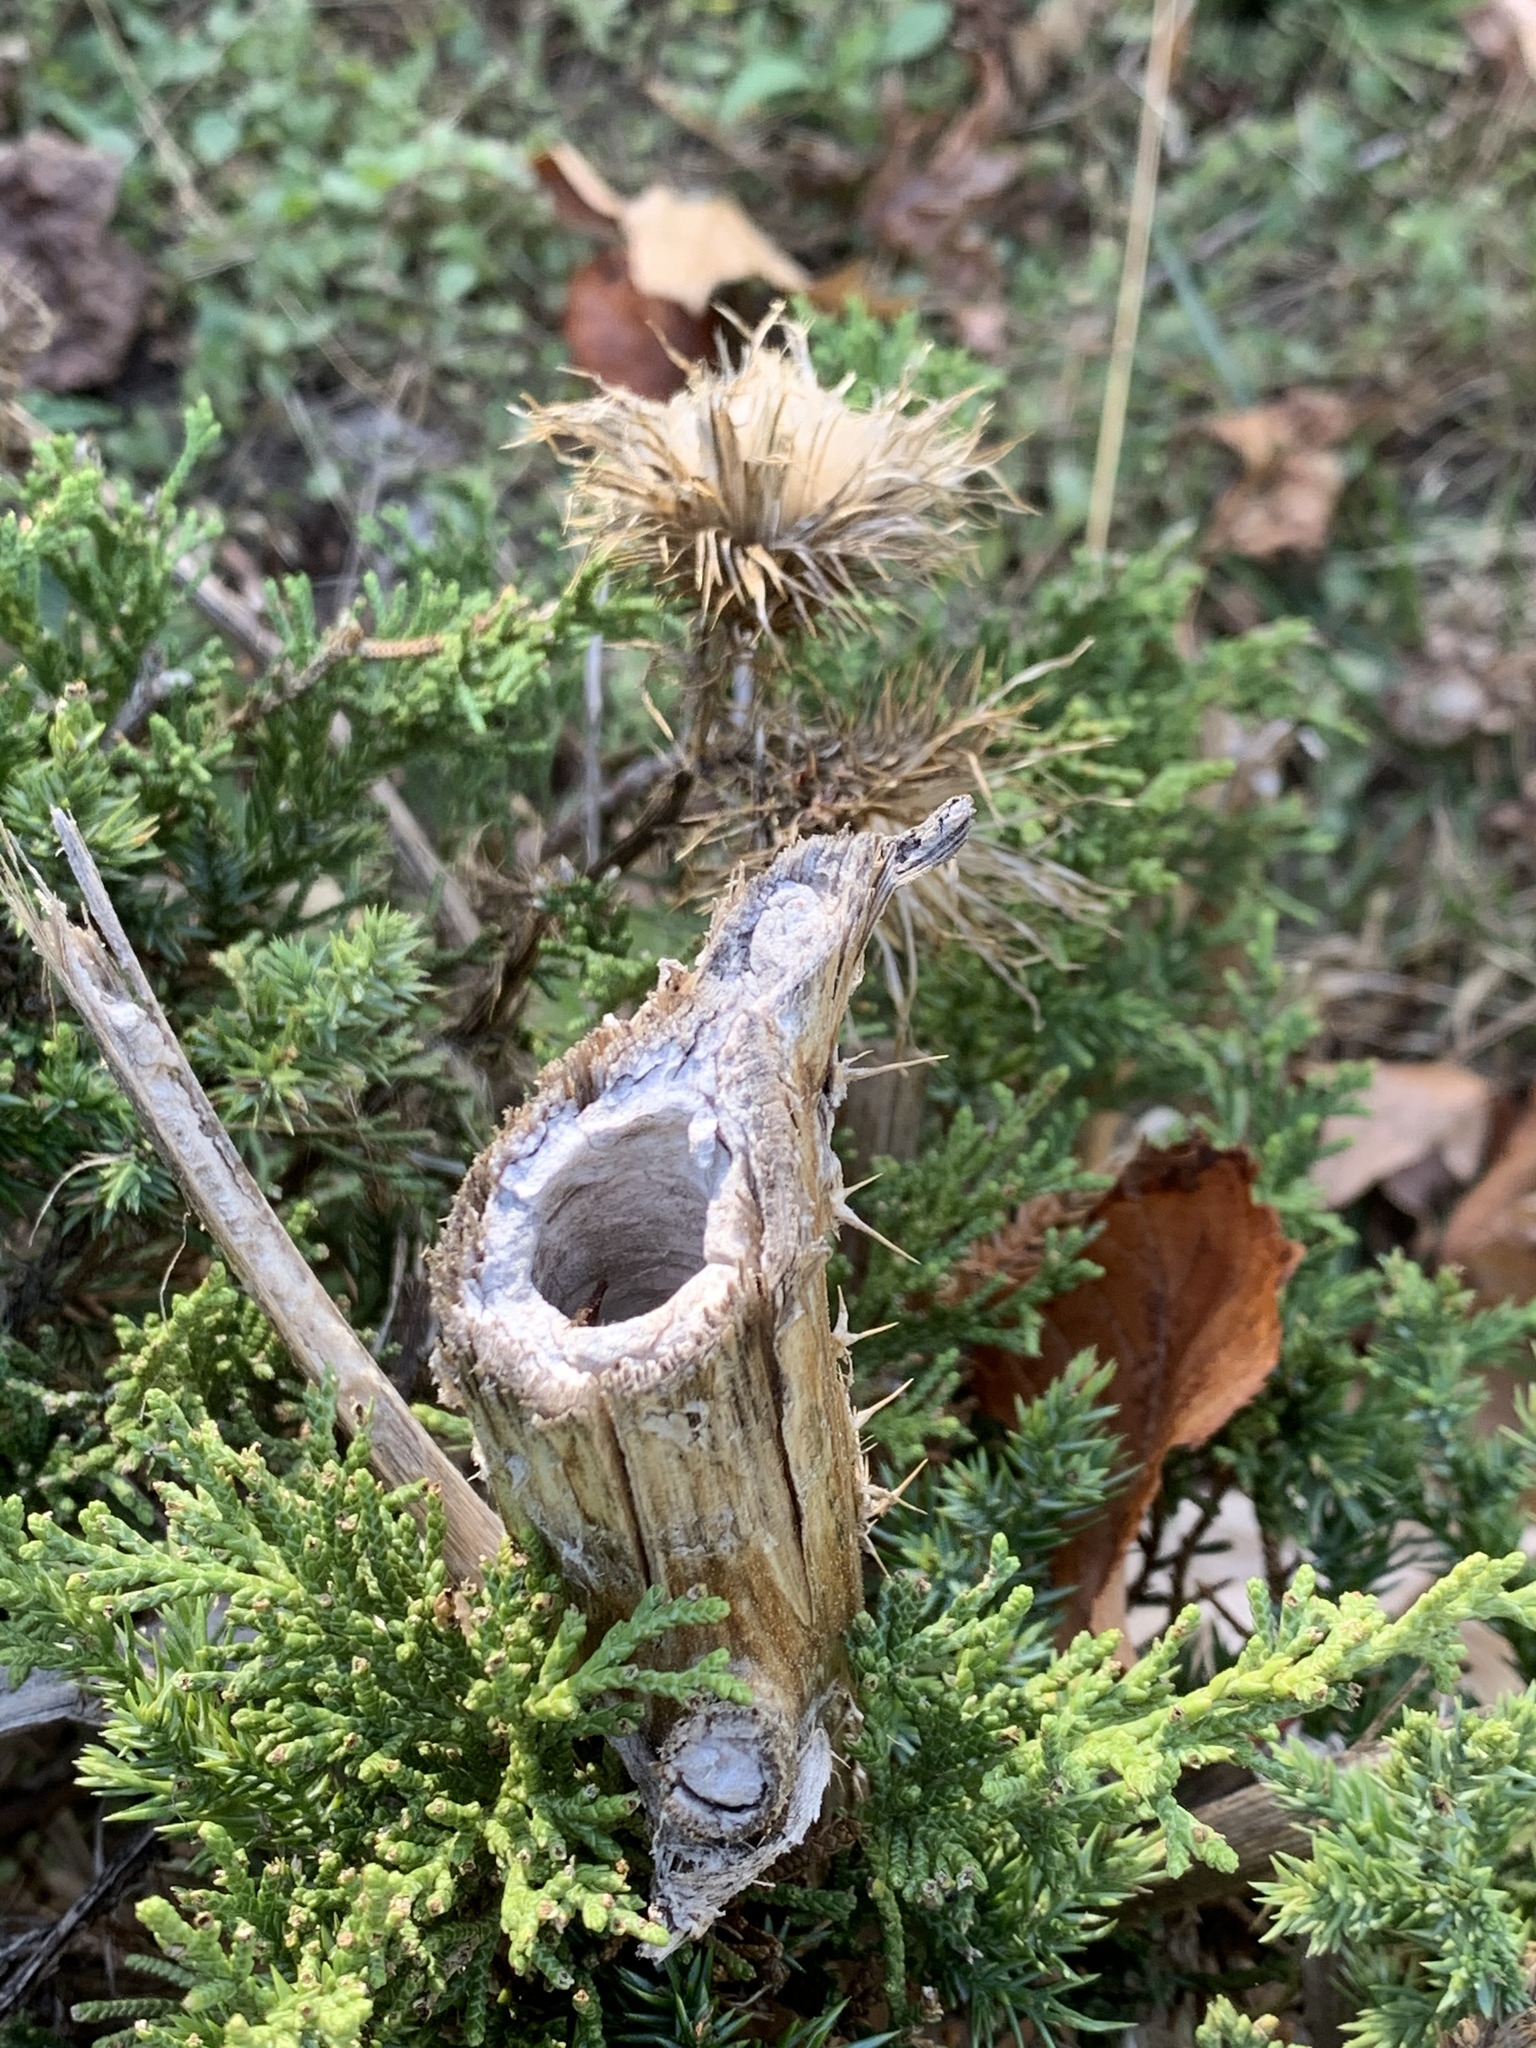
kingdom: Plantae
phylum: Tracheophyta
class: Magnoliopsida
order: Asterales
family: Asteraceae
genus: Cirsium
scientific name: Cirsium vulgare
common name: Bull thistle
